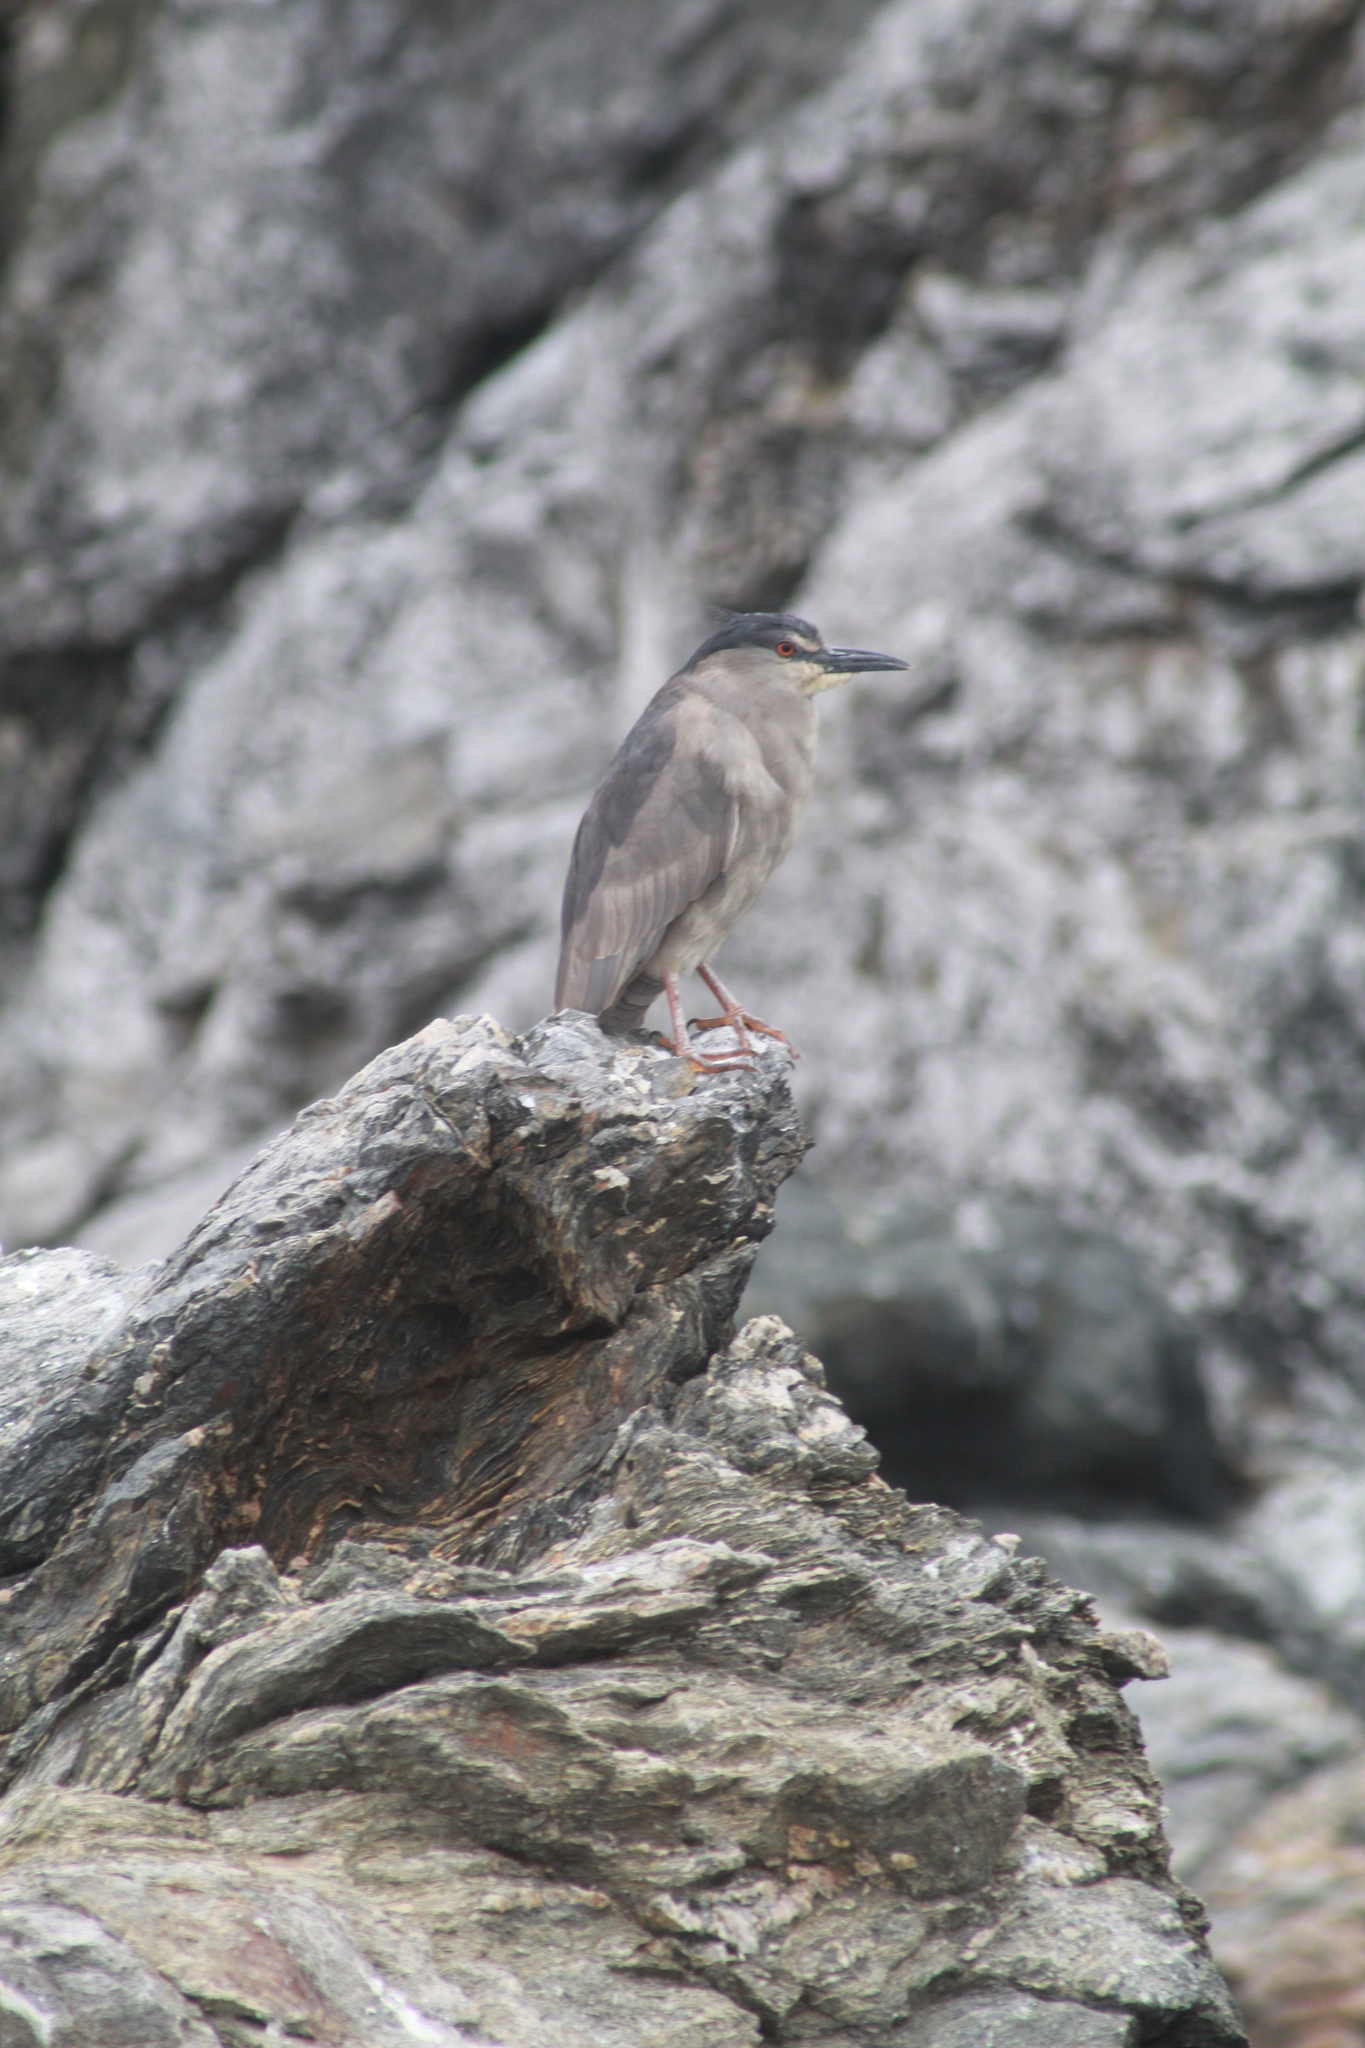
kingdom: Animalia
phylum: Chordata
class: Aves
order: Pelecaniformes
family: Ardeidae
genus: Nycticorax
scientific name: Nycticorax nycticorax
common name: Black-crowned night heron
